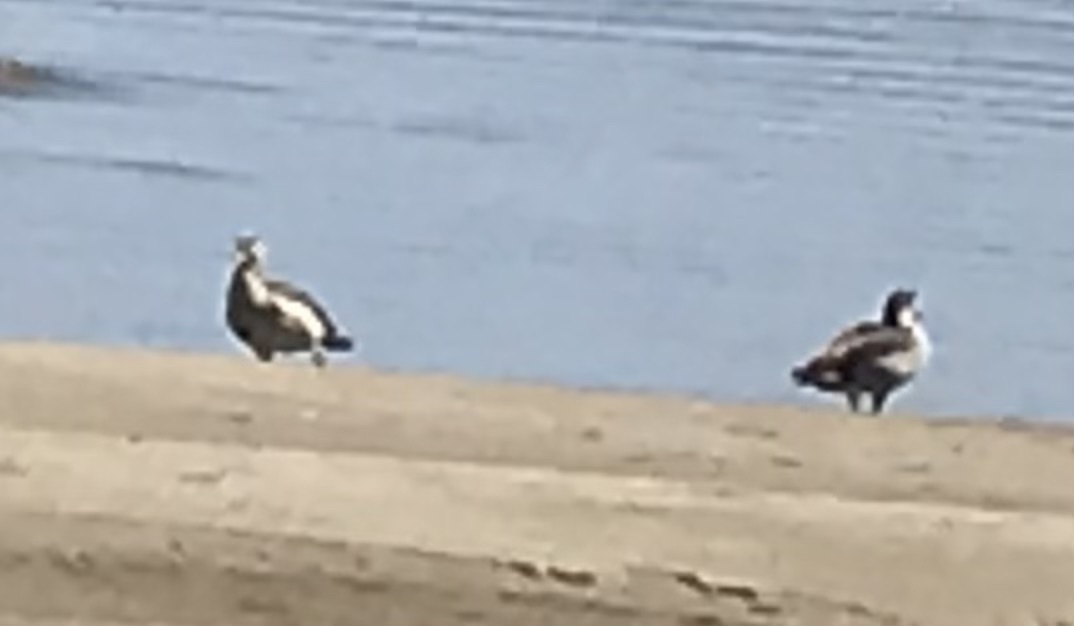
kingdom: Animalia
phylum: Chordata
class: Aves
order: Anseriformes
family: Anatidae
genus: Alopochen
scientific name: Alopochen aegyptiaca
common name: Egyptian goose
